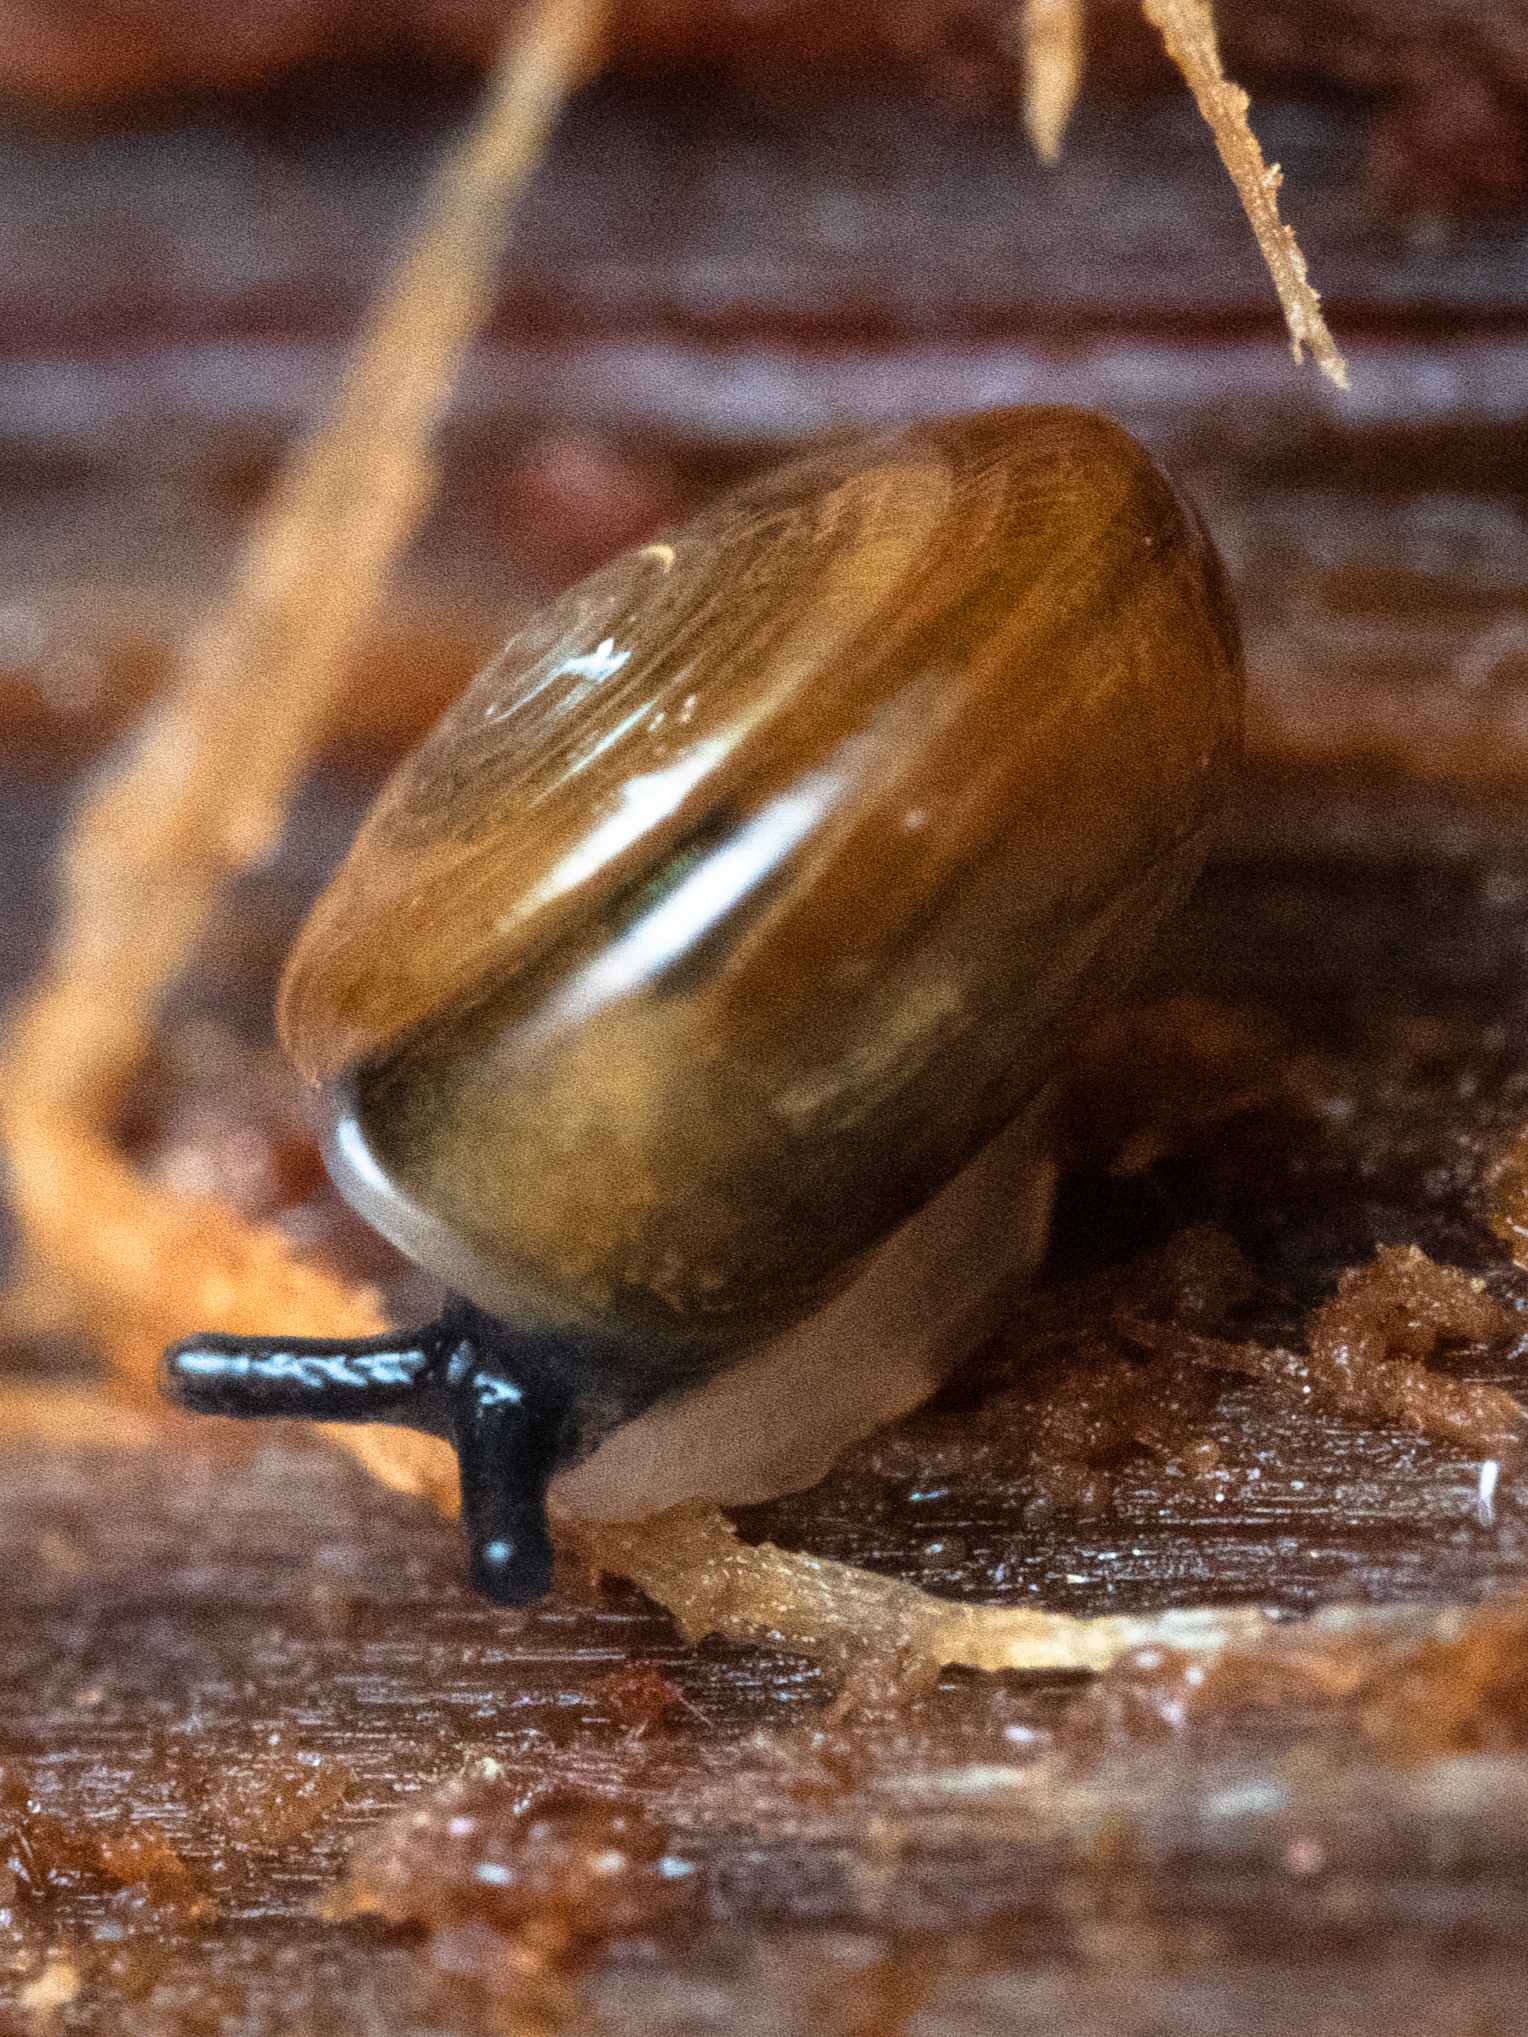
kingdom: Animalia
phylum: Mollusca
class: Gastropoda
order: Stylommatophora
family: Pristilomatidae
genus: Pristiloma
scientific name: Pristiloma idahoense
